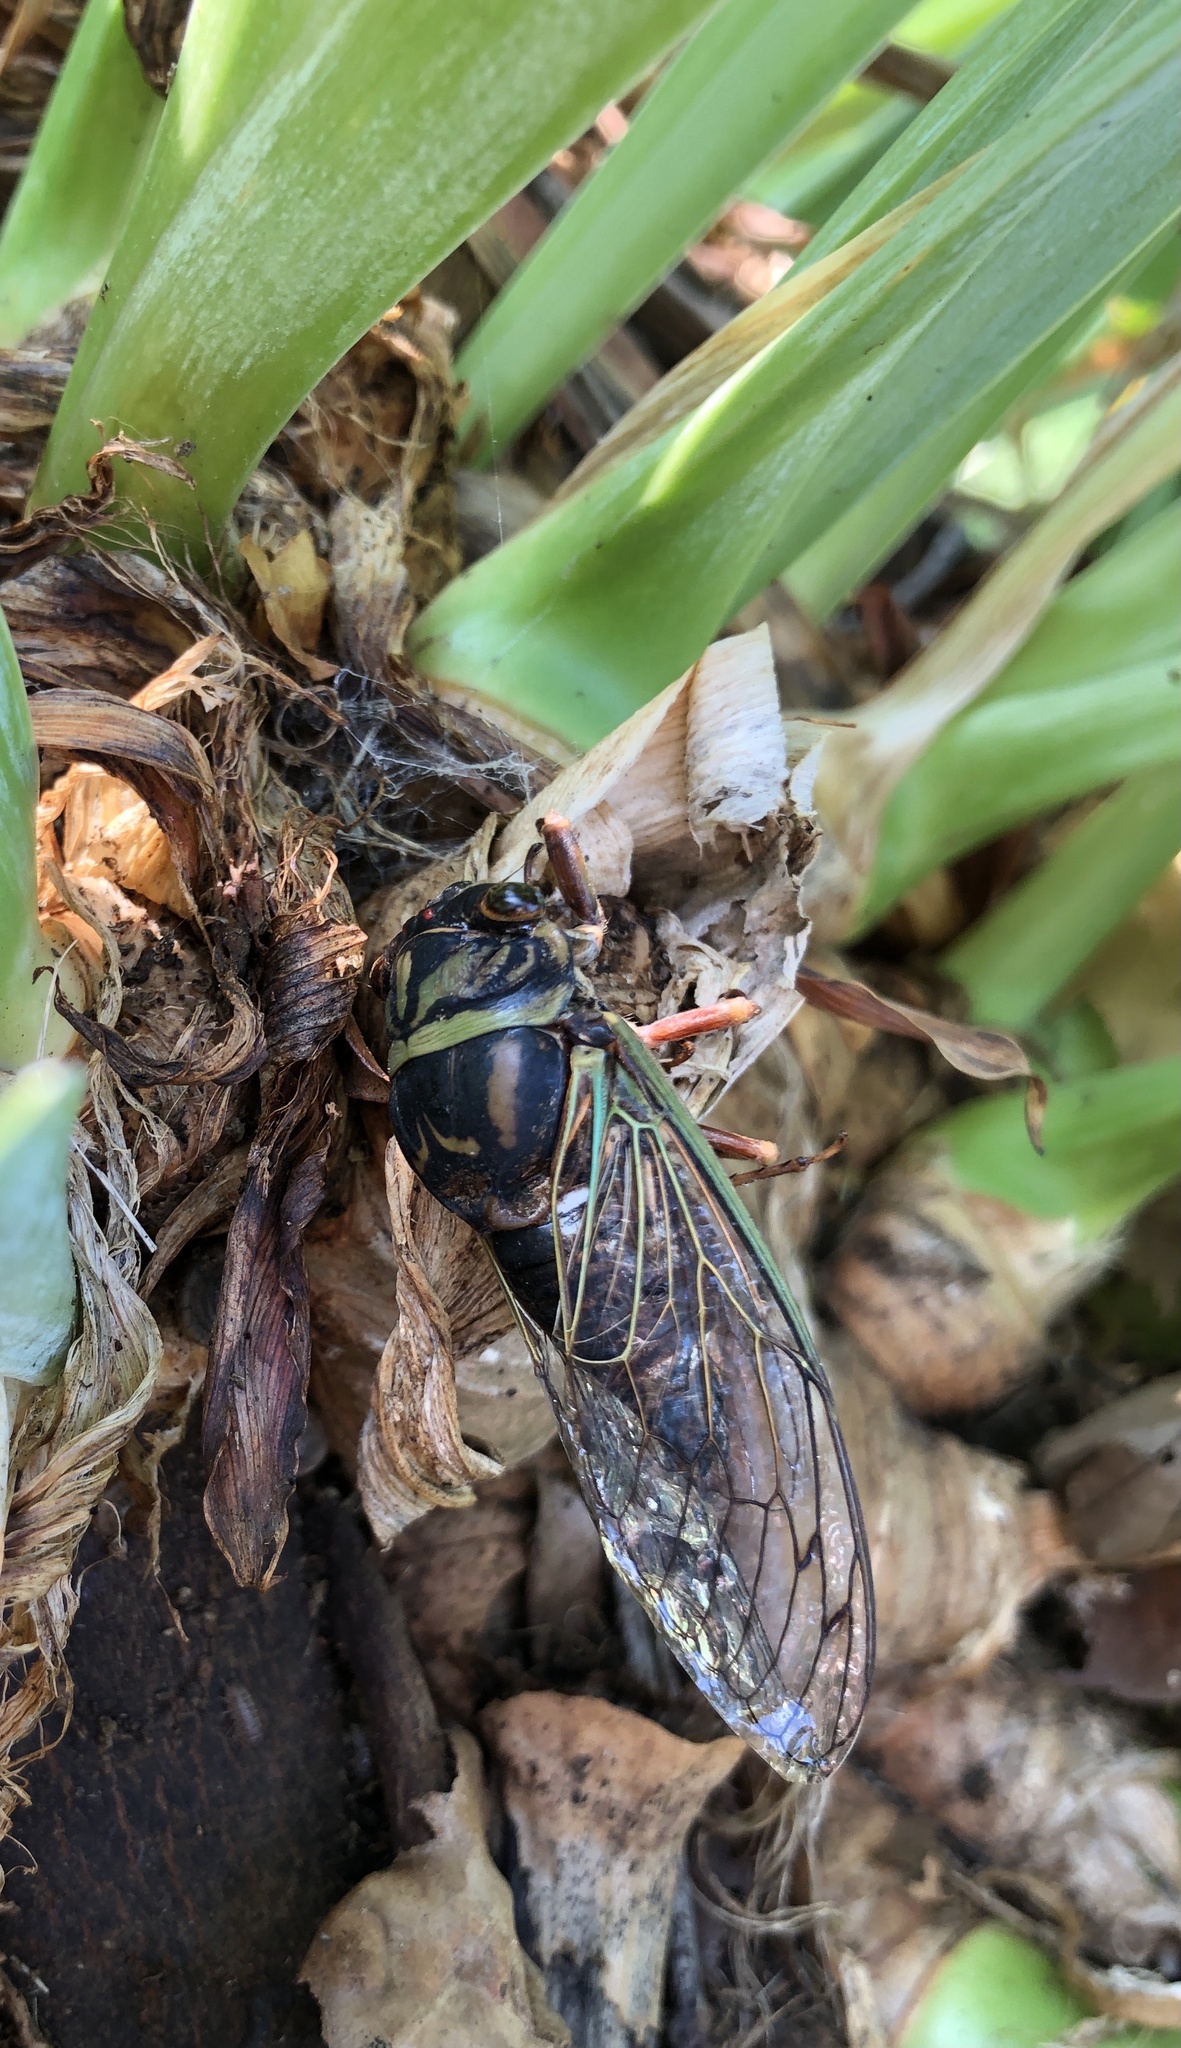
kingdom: Animalia
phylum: Arthropoda
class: Insecta
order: Hemiptera
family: Cicadidae
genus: Megatibicen
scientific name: Megatibicen resh
